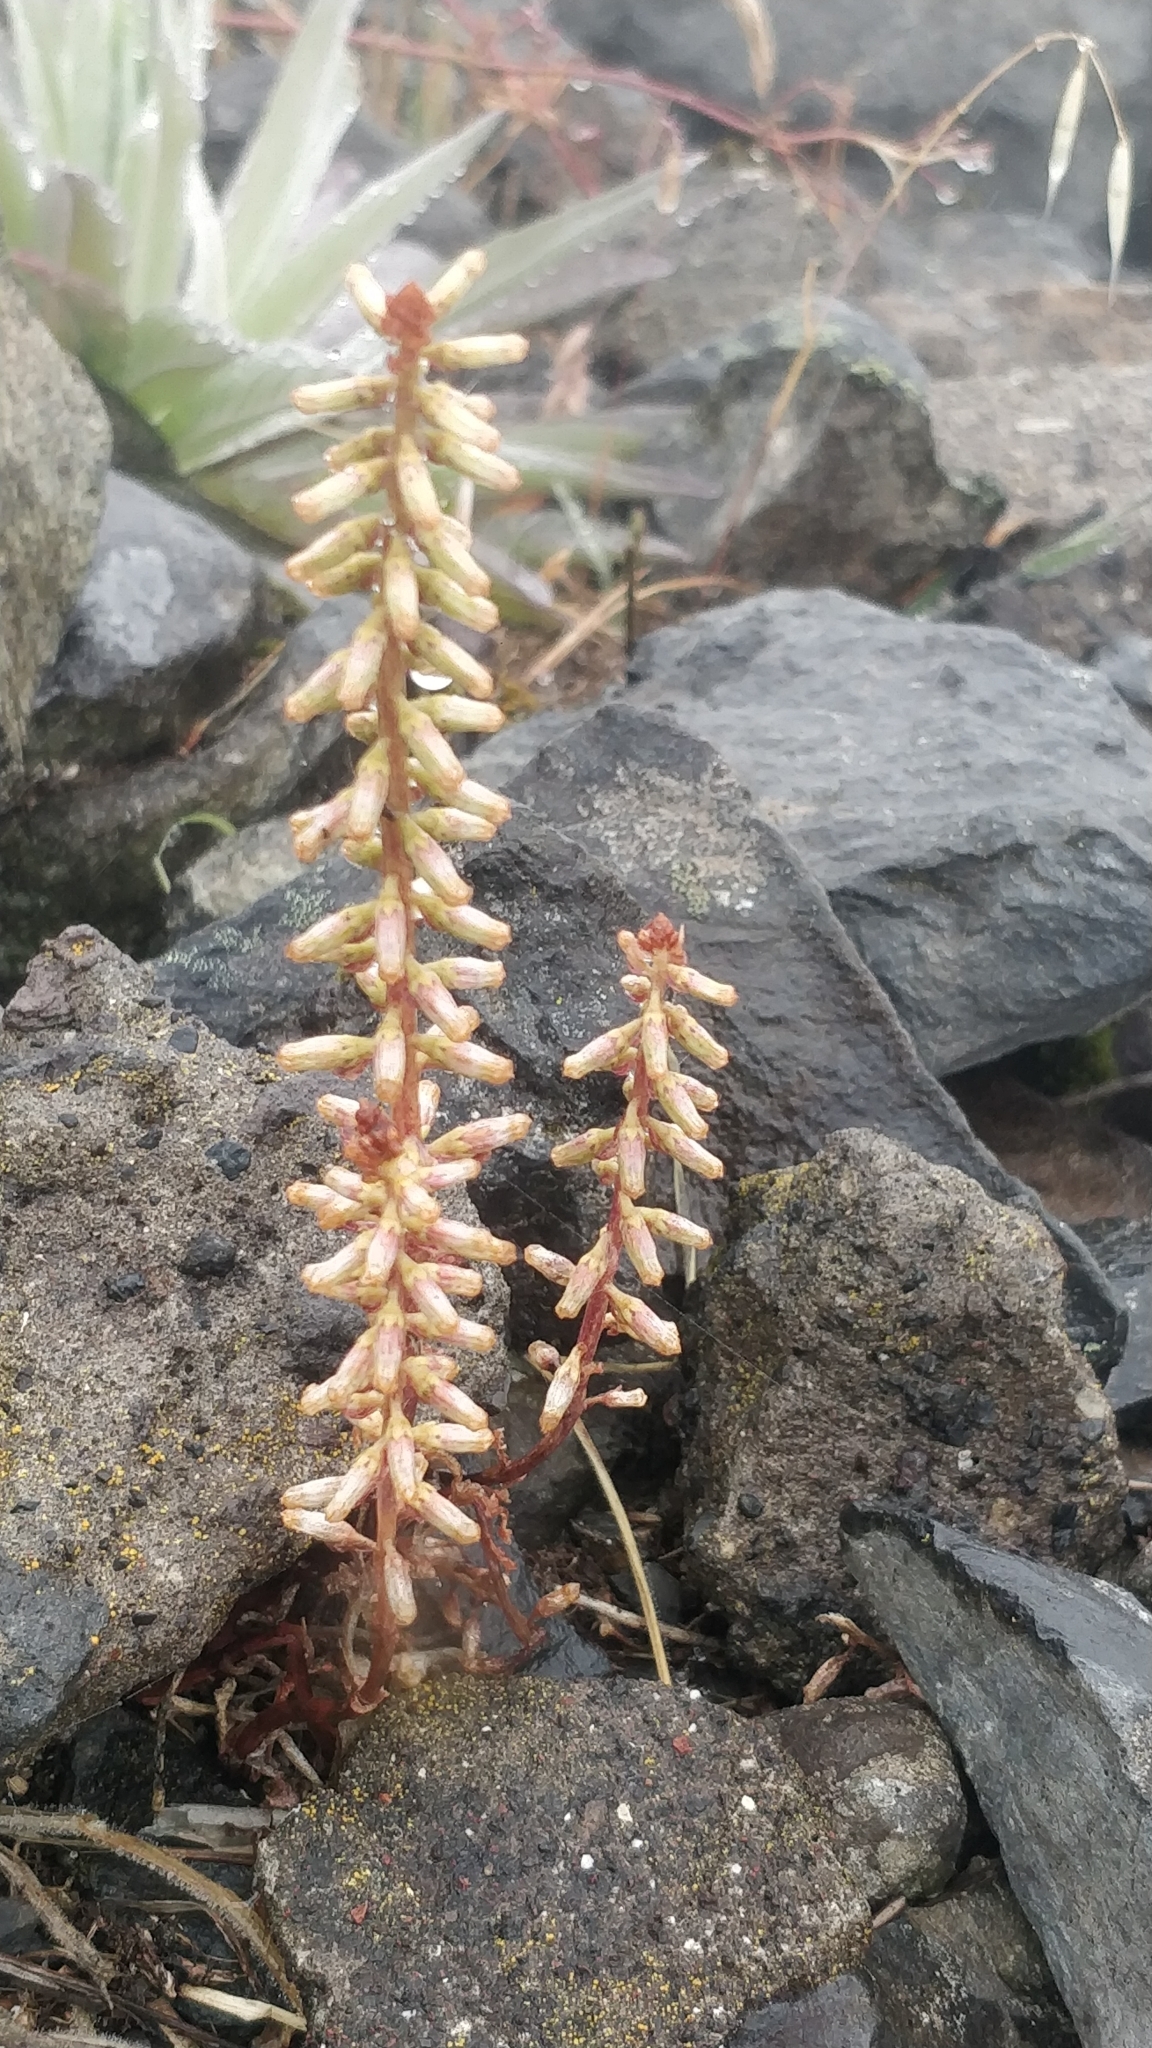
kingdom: Plantae
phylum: Tracheophyta
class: Magnoliopsida
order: Saxifragales
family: Crassulaceae
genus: Umbilicus
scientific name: Umbilicus rupestris
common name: Navelwort
